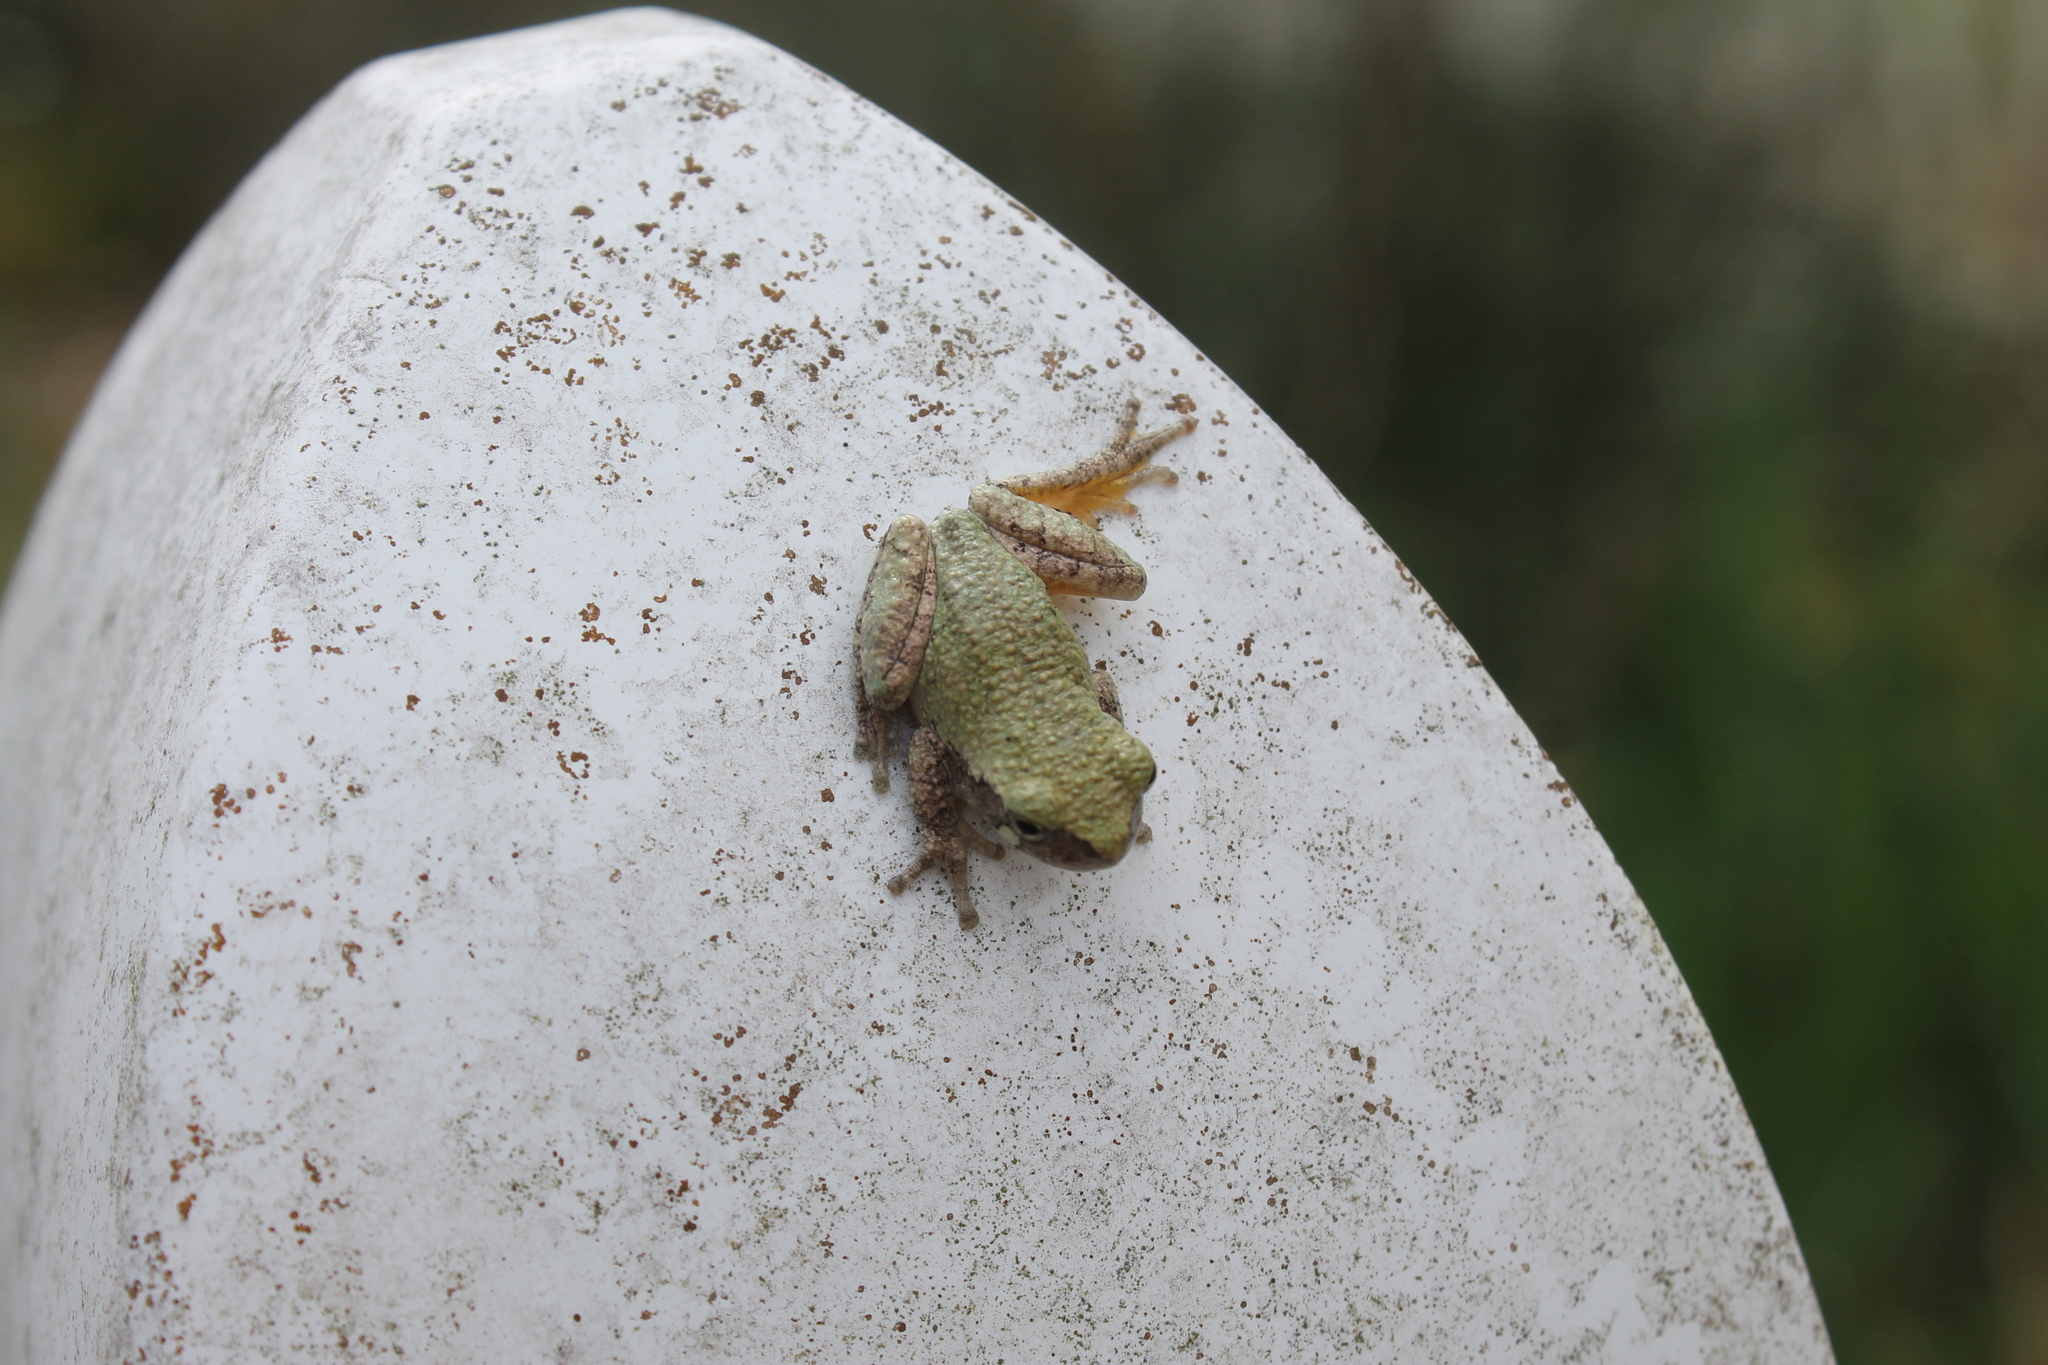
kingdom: Animalia
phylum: Chordata
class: Amphibia
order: Anura
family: Hylidae
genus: Dryophytes
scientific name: Dryophytes chrysoscelis
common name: Cope's gray treefrog
